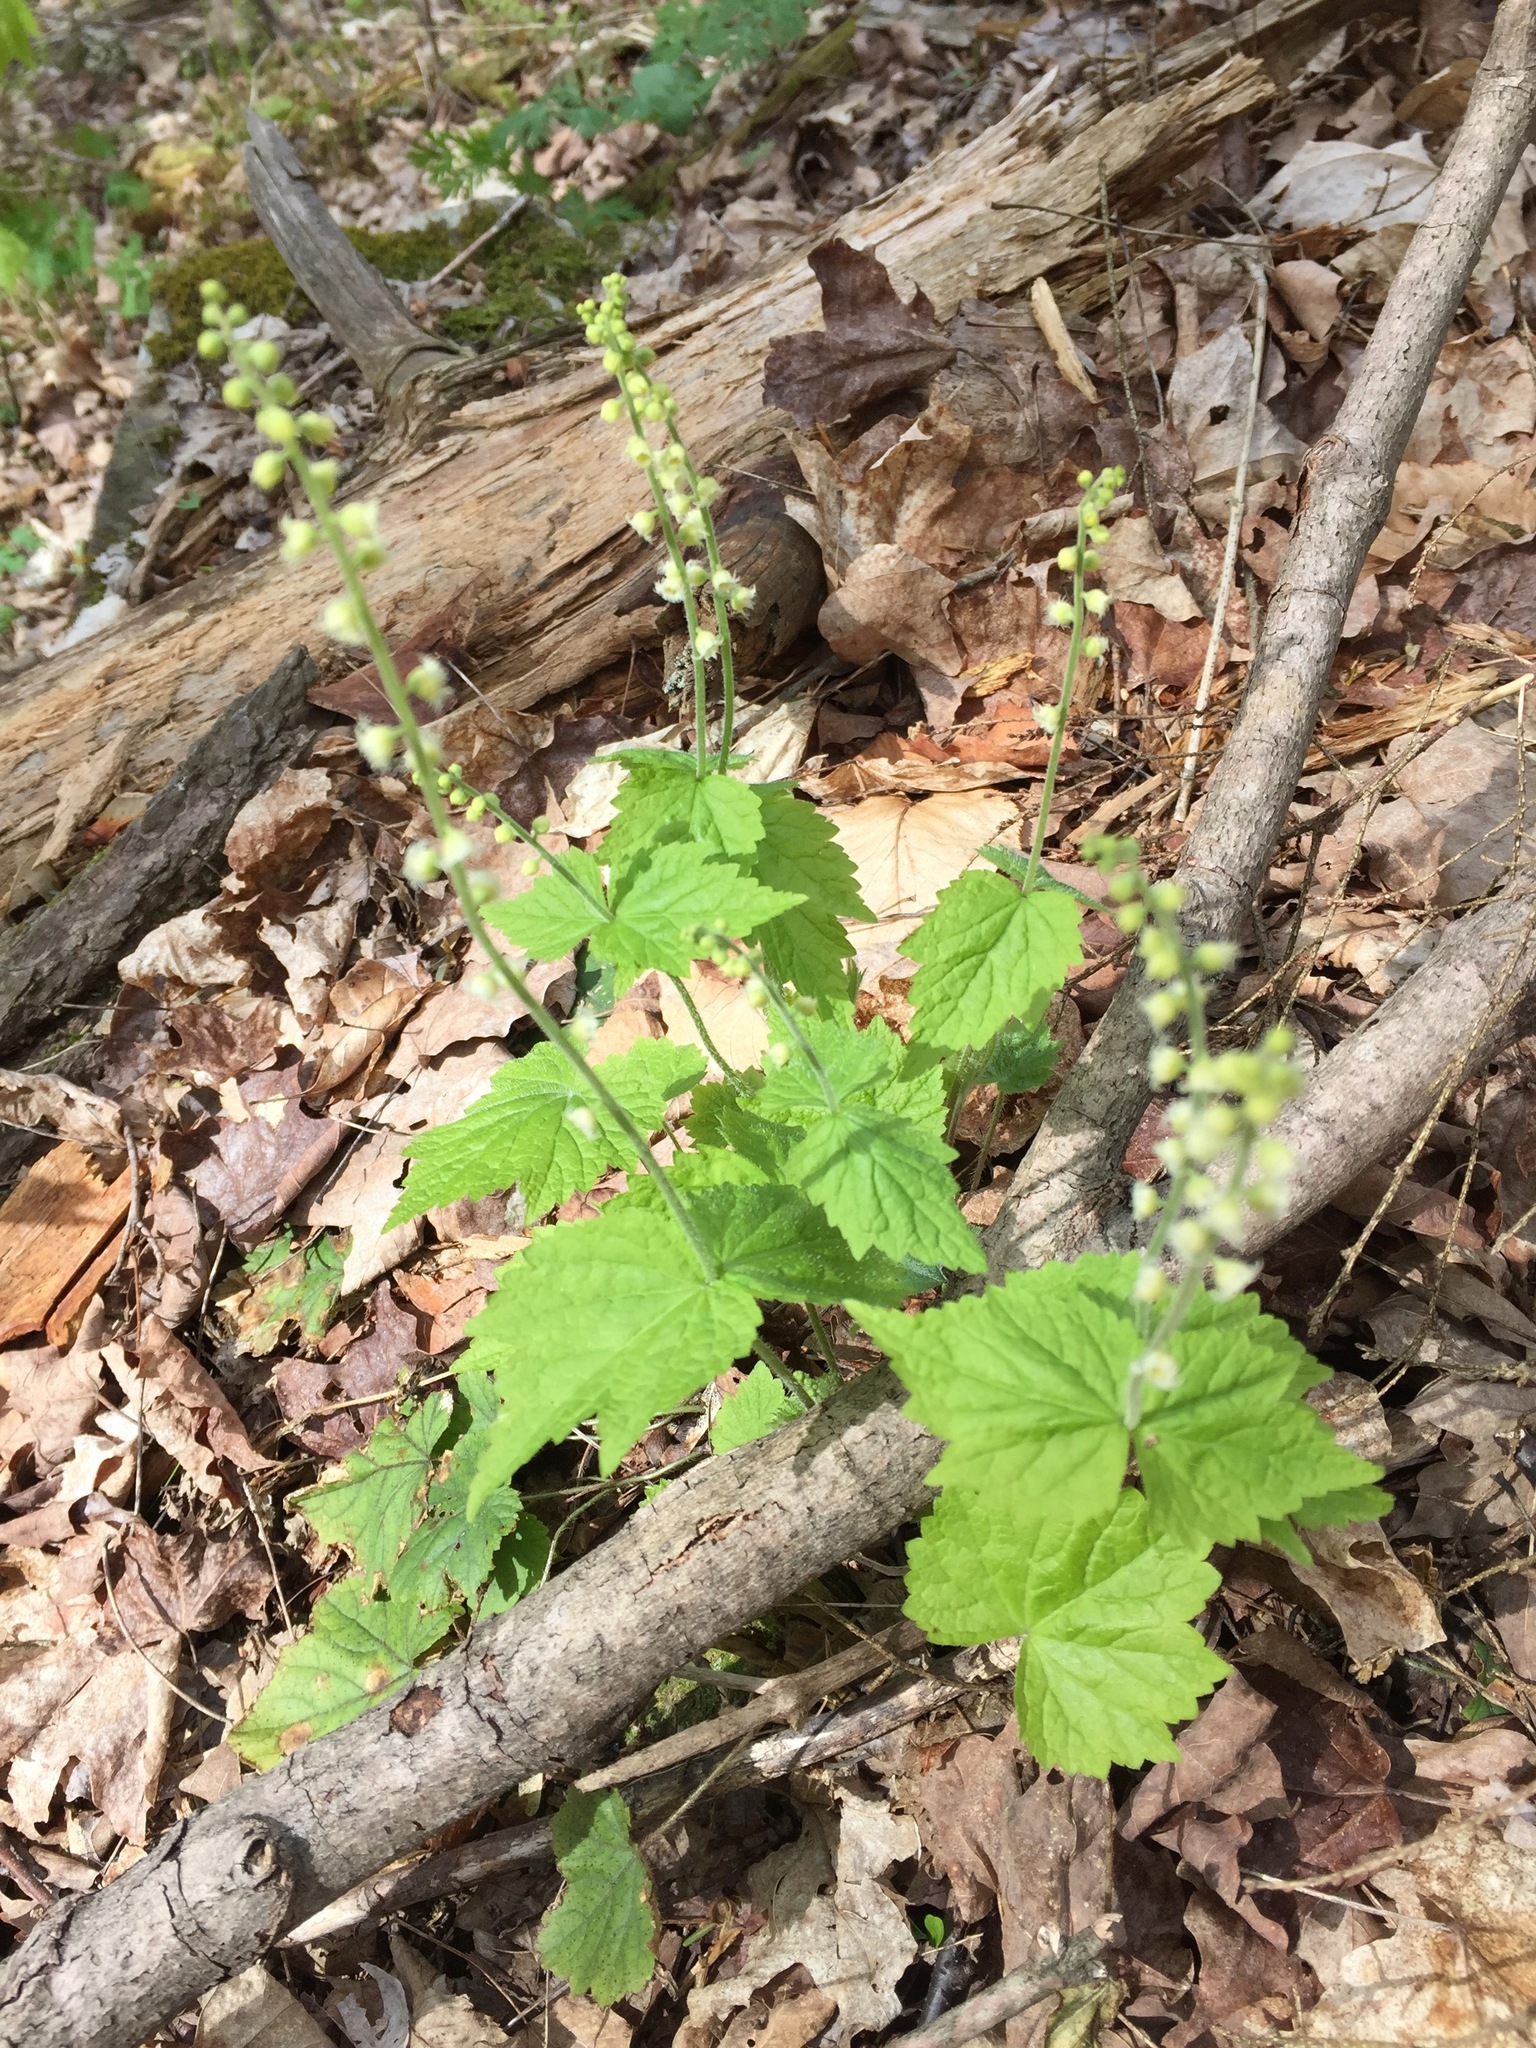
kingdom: Plantae
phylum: Tracheophyta
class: Magnoliopsida
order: Saxifragales
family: Saxifragaceae
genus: Mitella
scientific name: Mitella diphylla
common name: Coolwort
